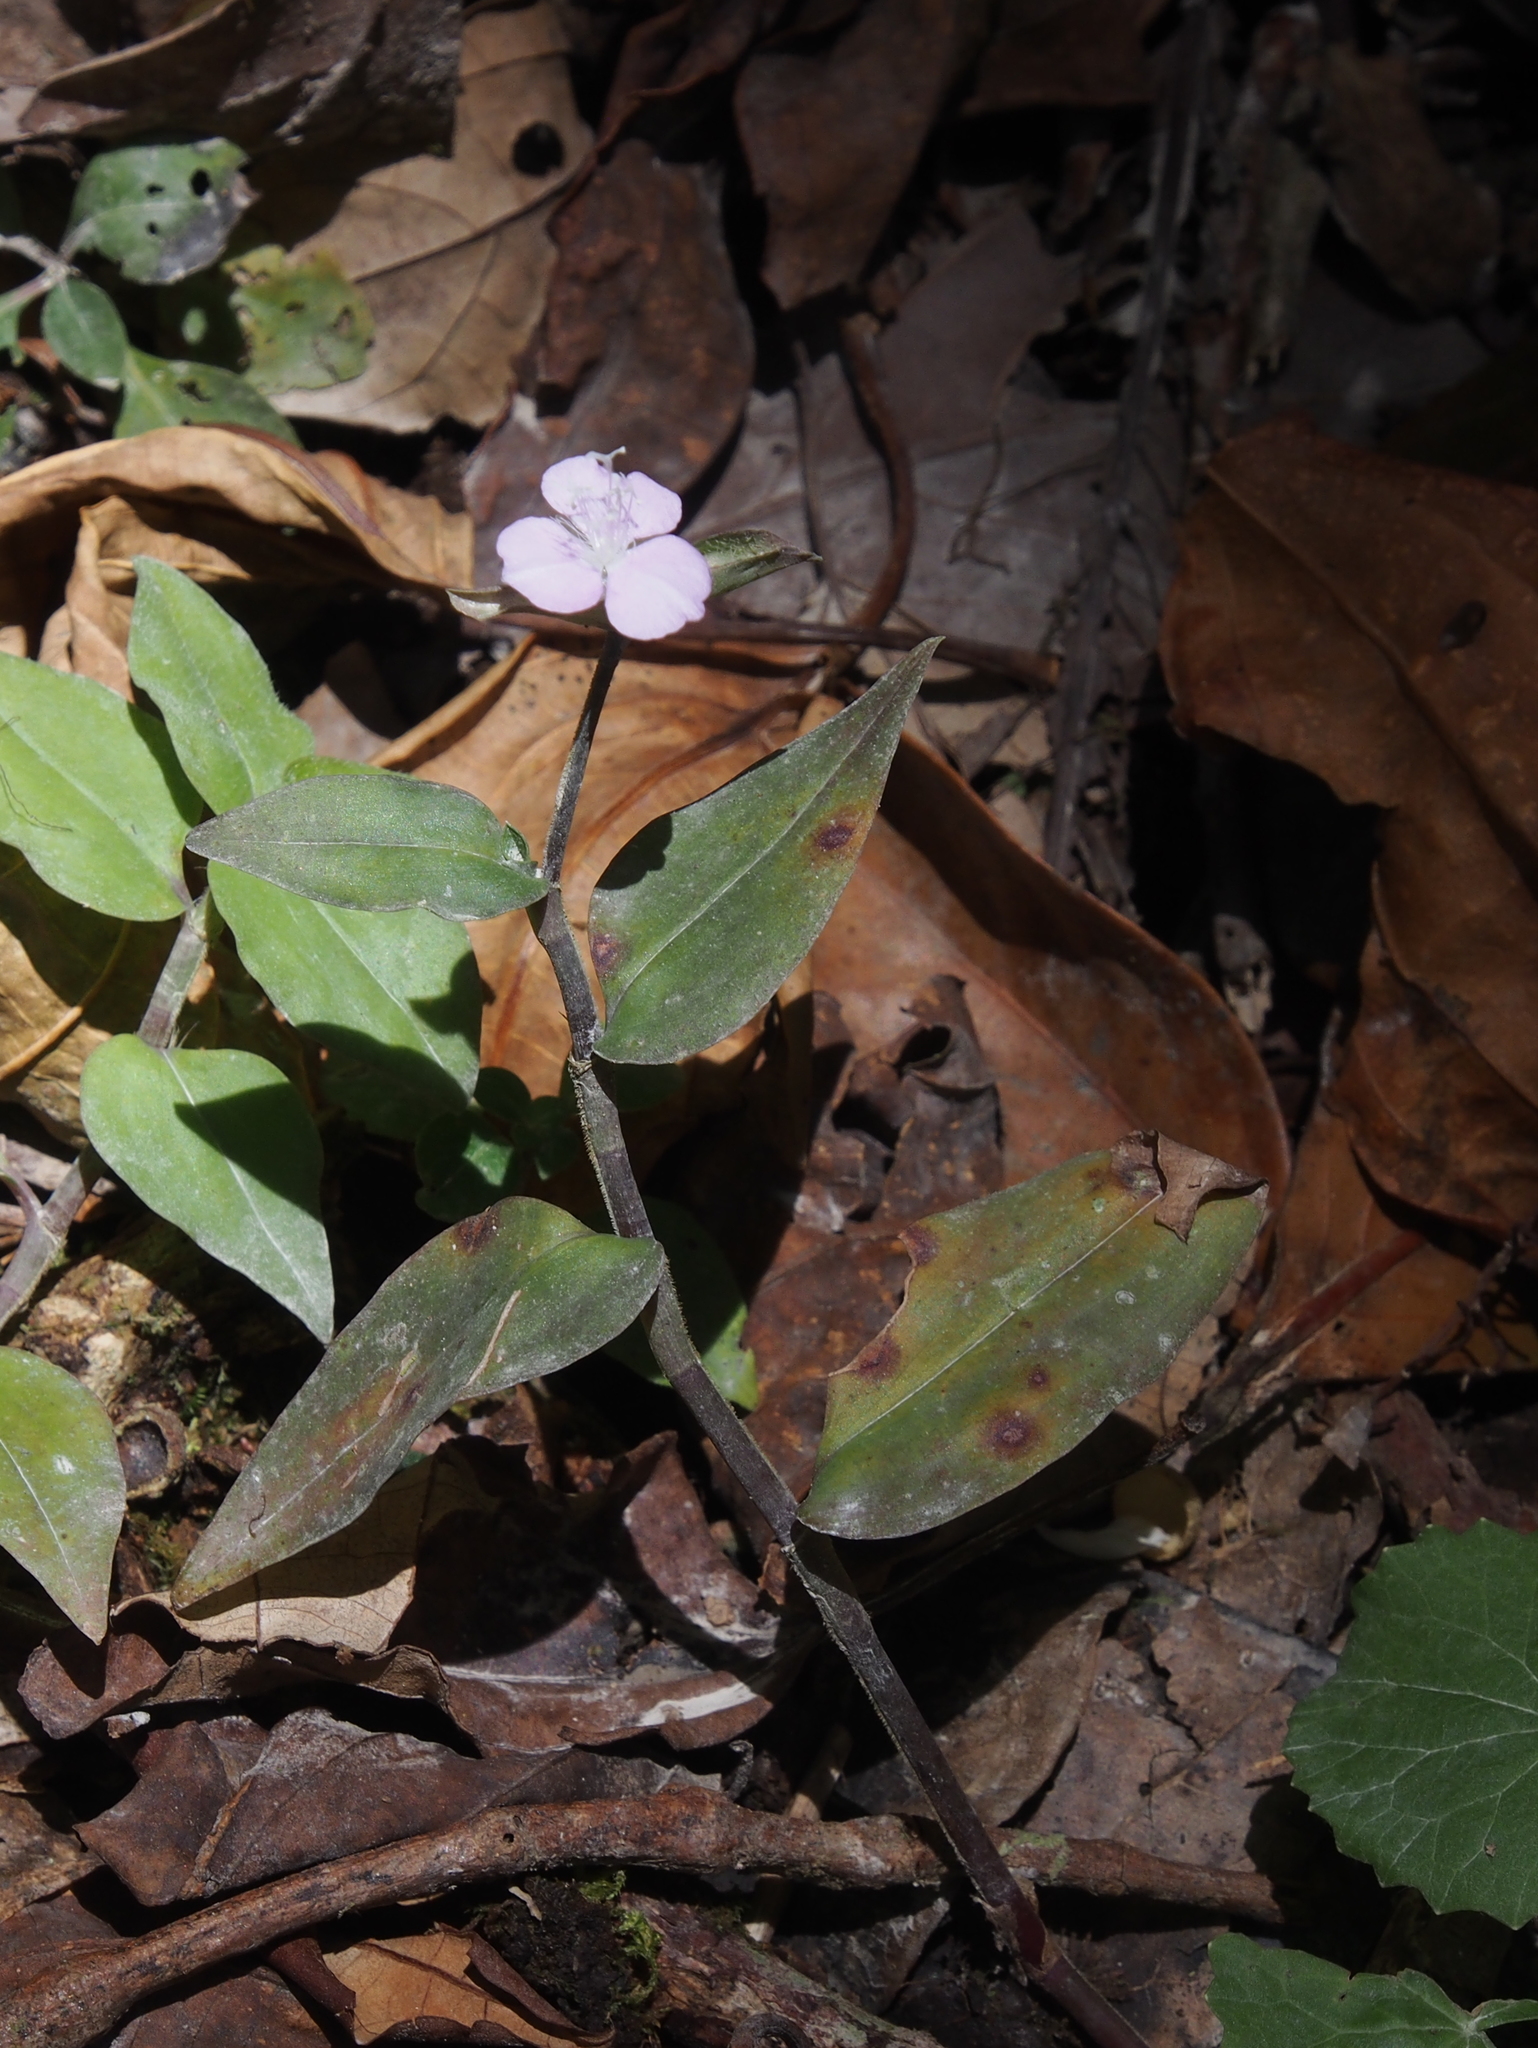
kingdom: Plantae
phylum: Tracheophyta
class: Liliopsida
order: Commelinales
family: Commelinaceae
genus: Tradescantia
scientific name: Tradescantia poelliae
